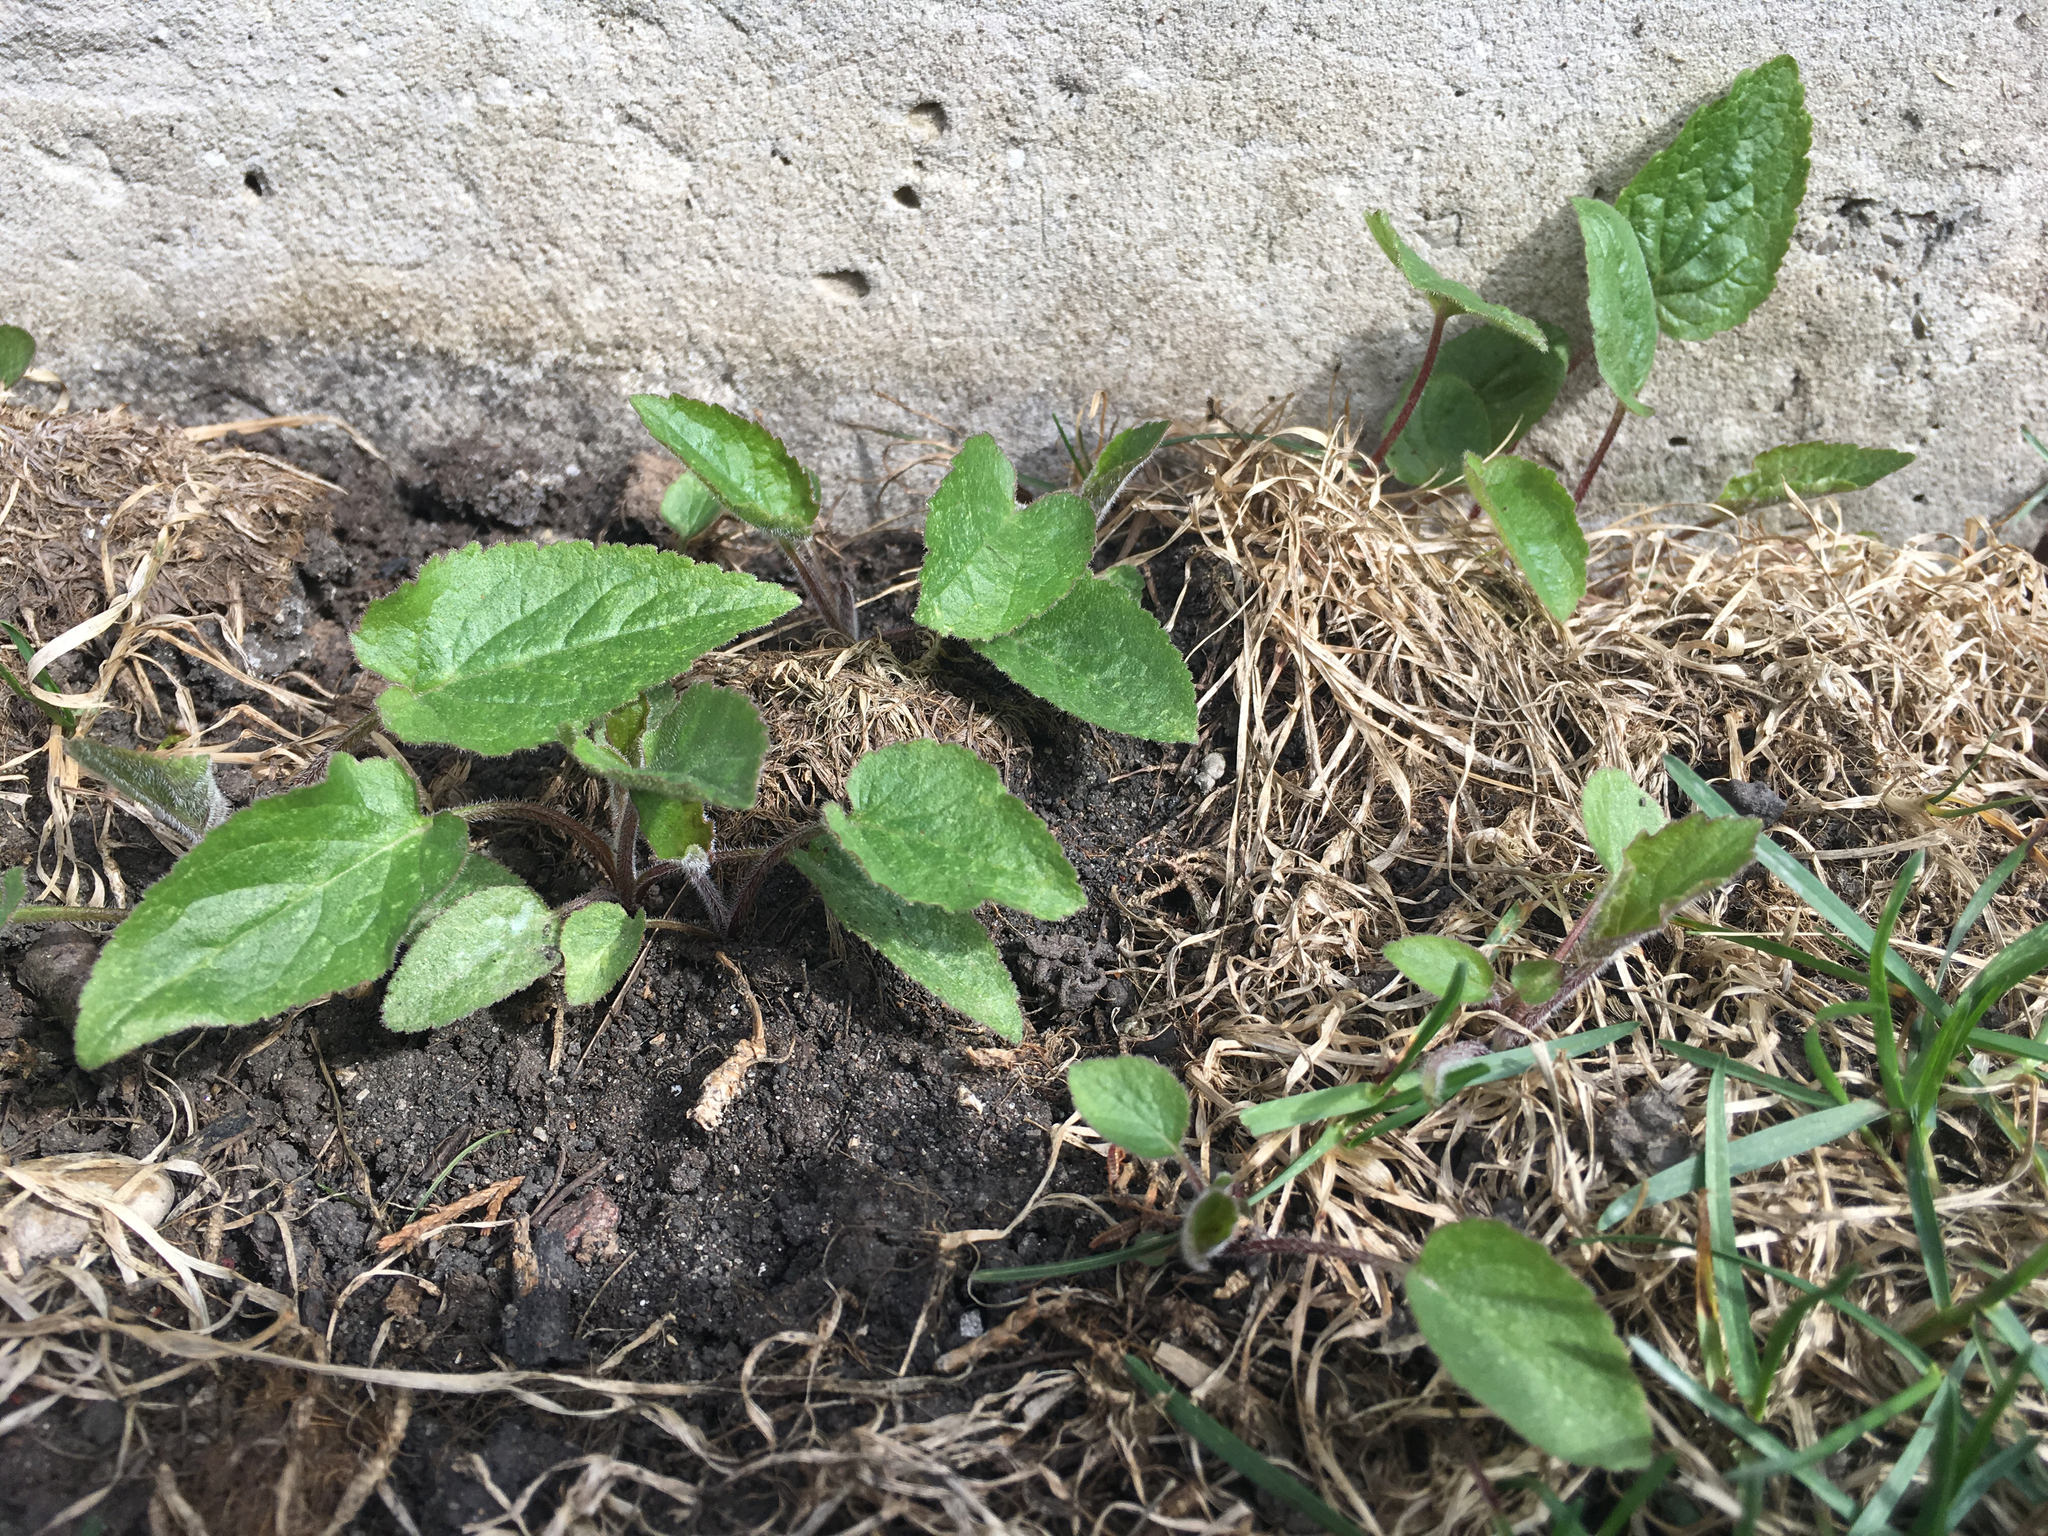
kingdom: Plantae
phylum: Tracheophyta
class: Magnoliopsida
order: Asterales
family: Campanulaceae
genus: Campanula
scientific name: Campanula rapunculoides
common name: Creeping bellflower
